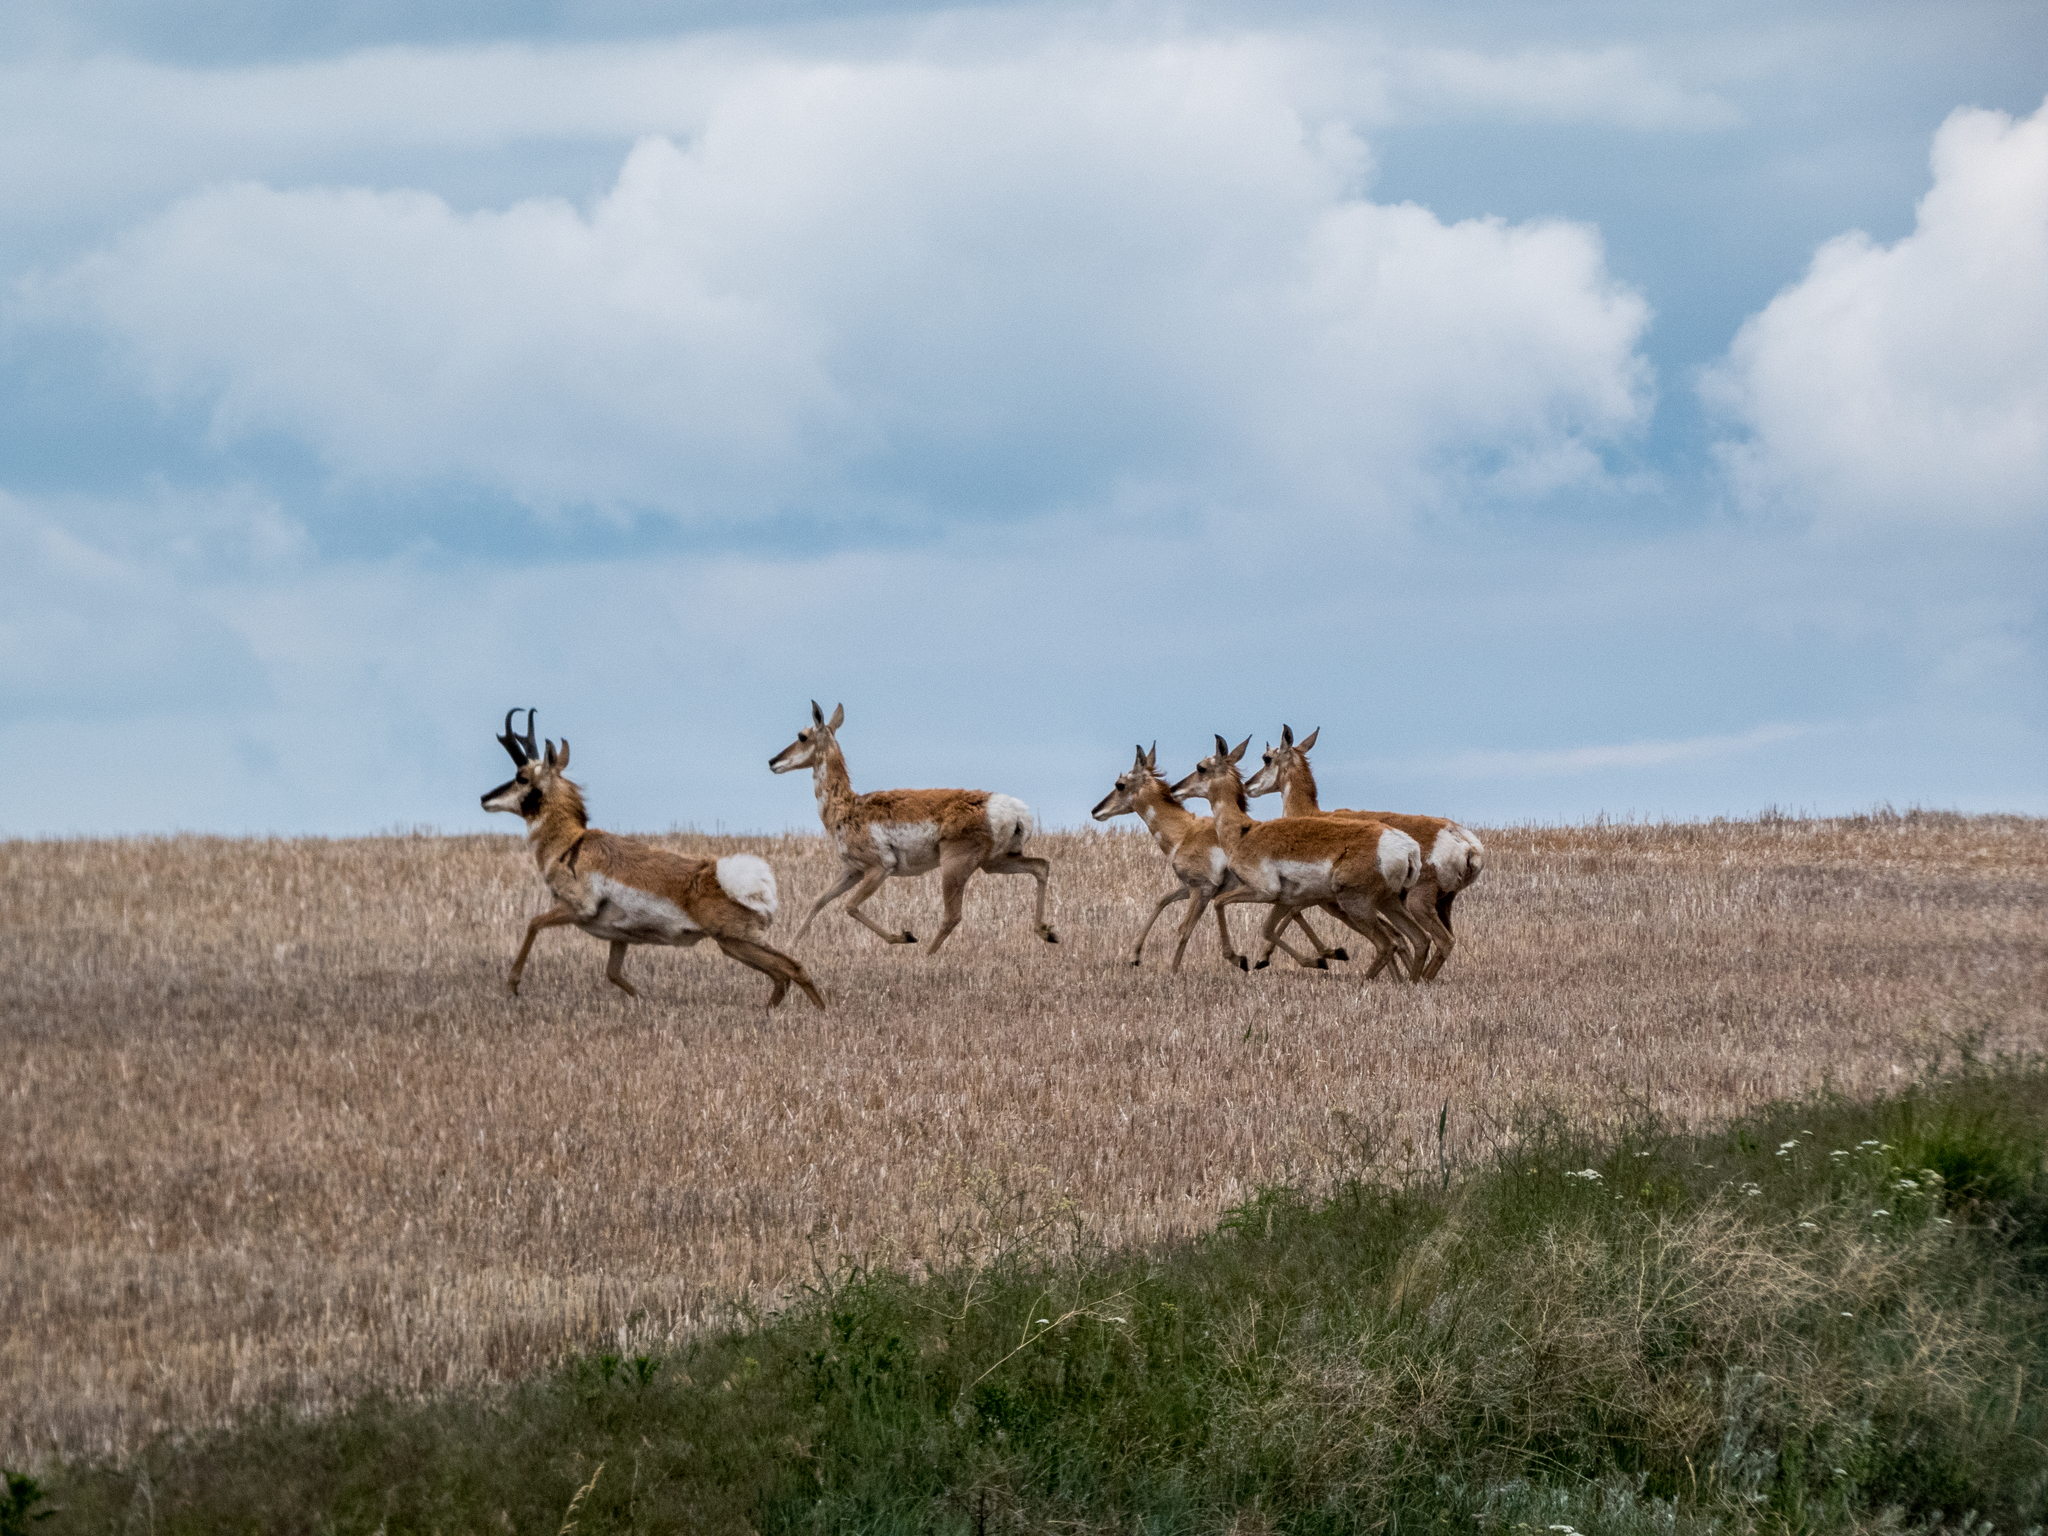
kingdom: Animalia
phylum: Chordata
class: Mammalia
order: Artiodactyla
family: Antilocapridae
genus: Antilocapra
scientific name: Antilocapra americana
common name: Pronghorn
